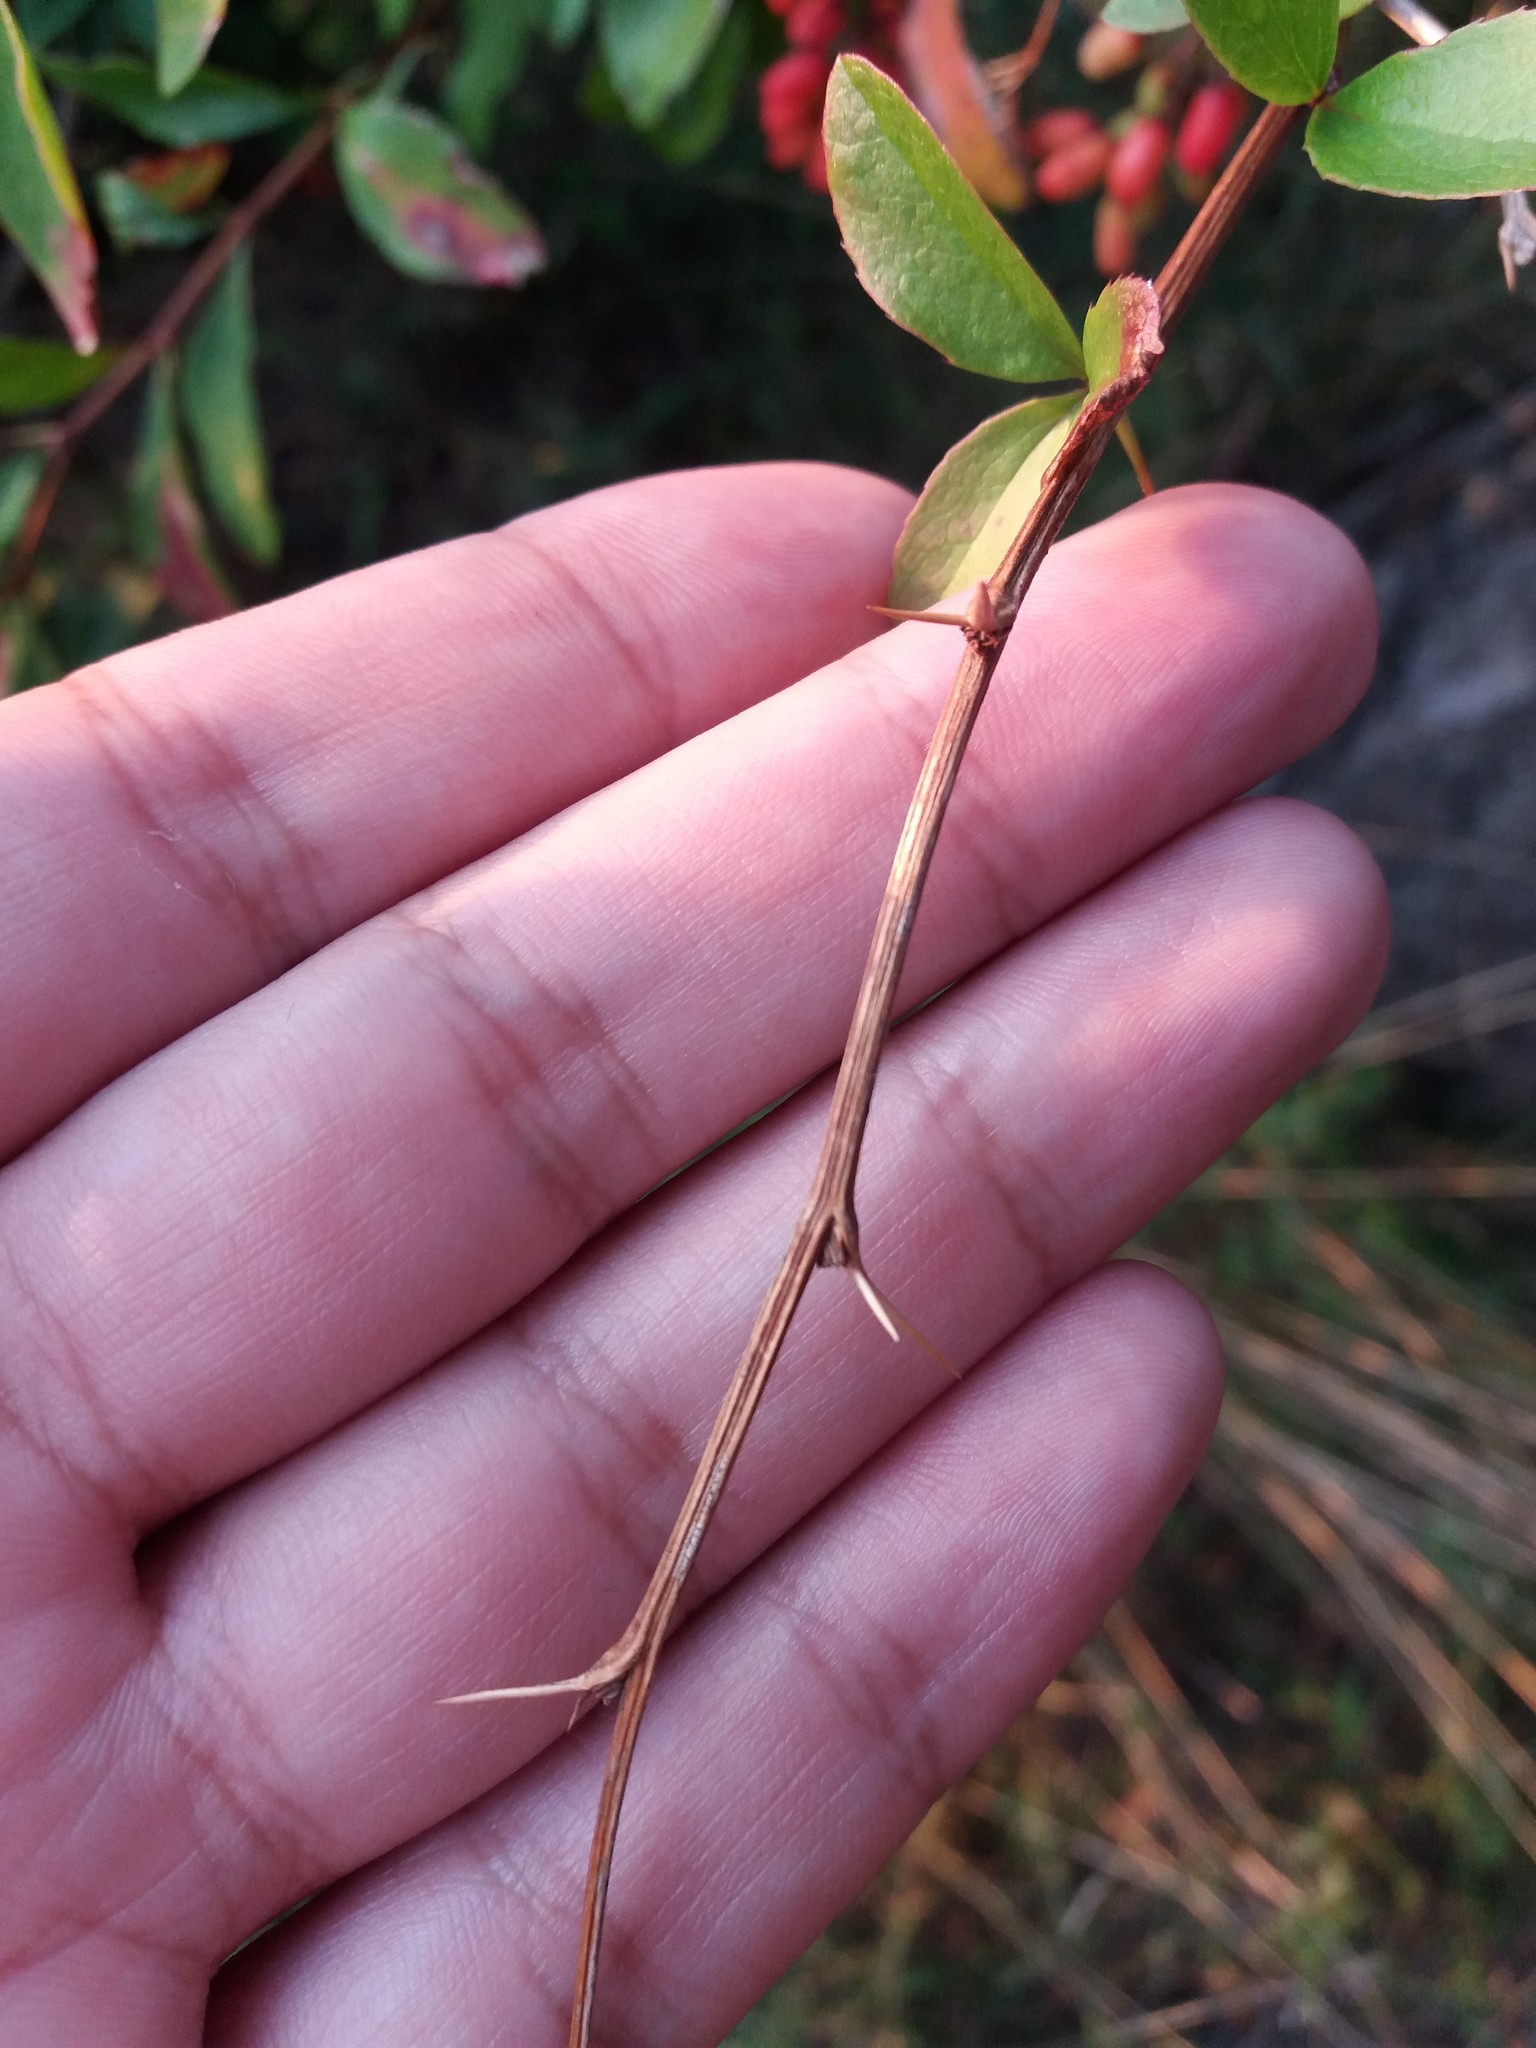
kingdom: Plantae
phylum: Tracheophyta
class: Magnoliopsida
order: Ranunculales
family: Berberidaceae
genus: Berberis
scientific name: Berberis vulgaris
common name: Barberry
